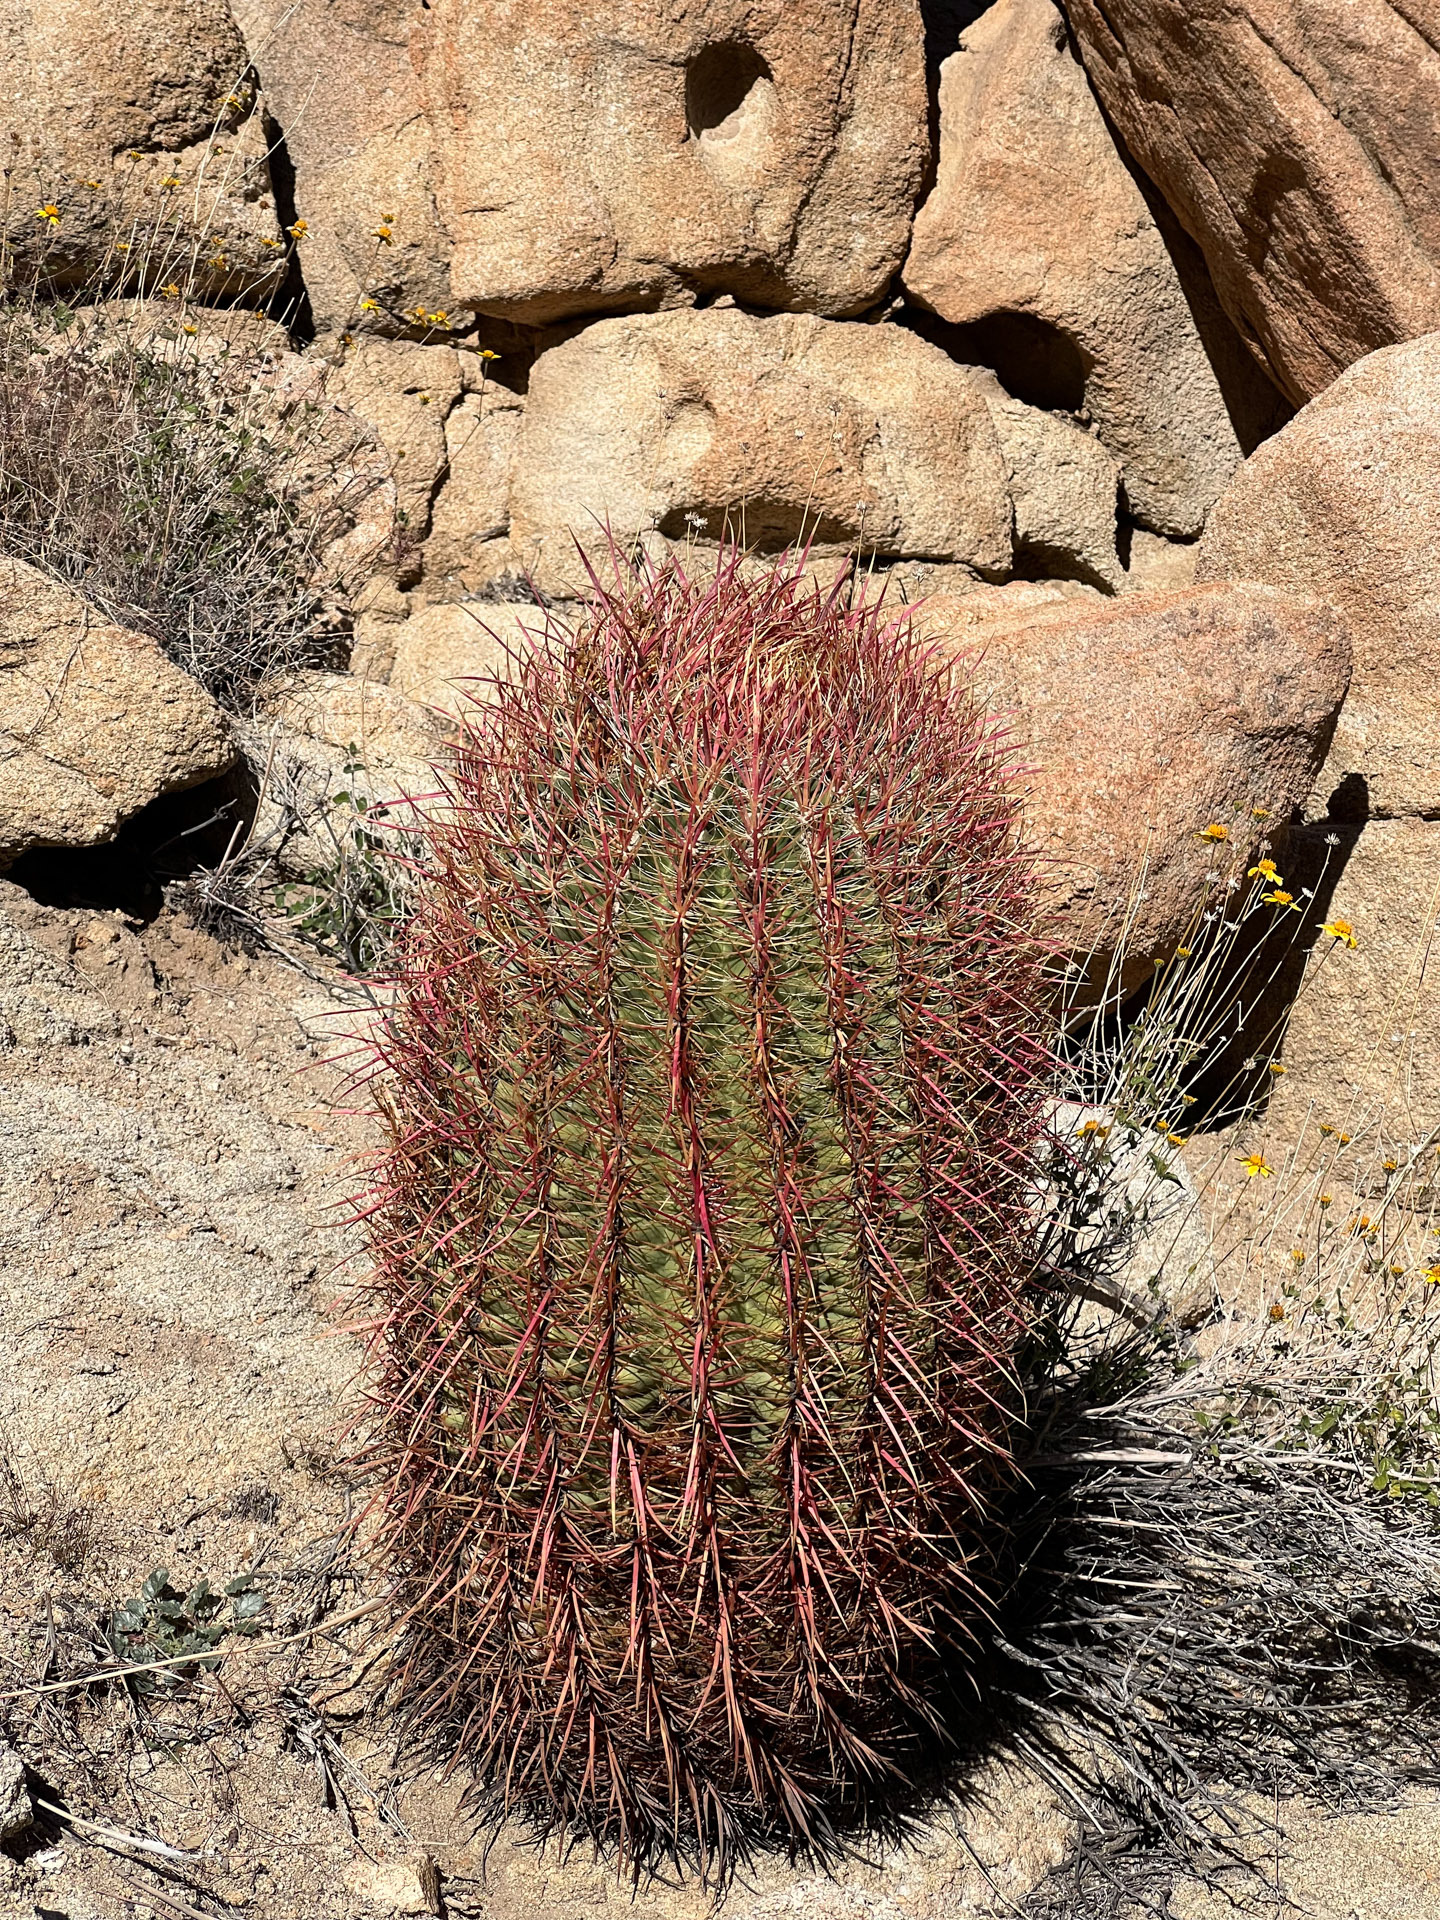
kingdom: Plantae
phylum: Tracheophyta
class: Magnoliopsida
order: Caryophyllales
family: Cactaceae
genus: Ferocactus
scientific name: Ferocactus cylindraceus
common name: California barrel cactus
